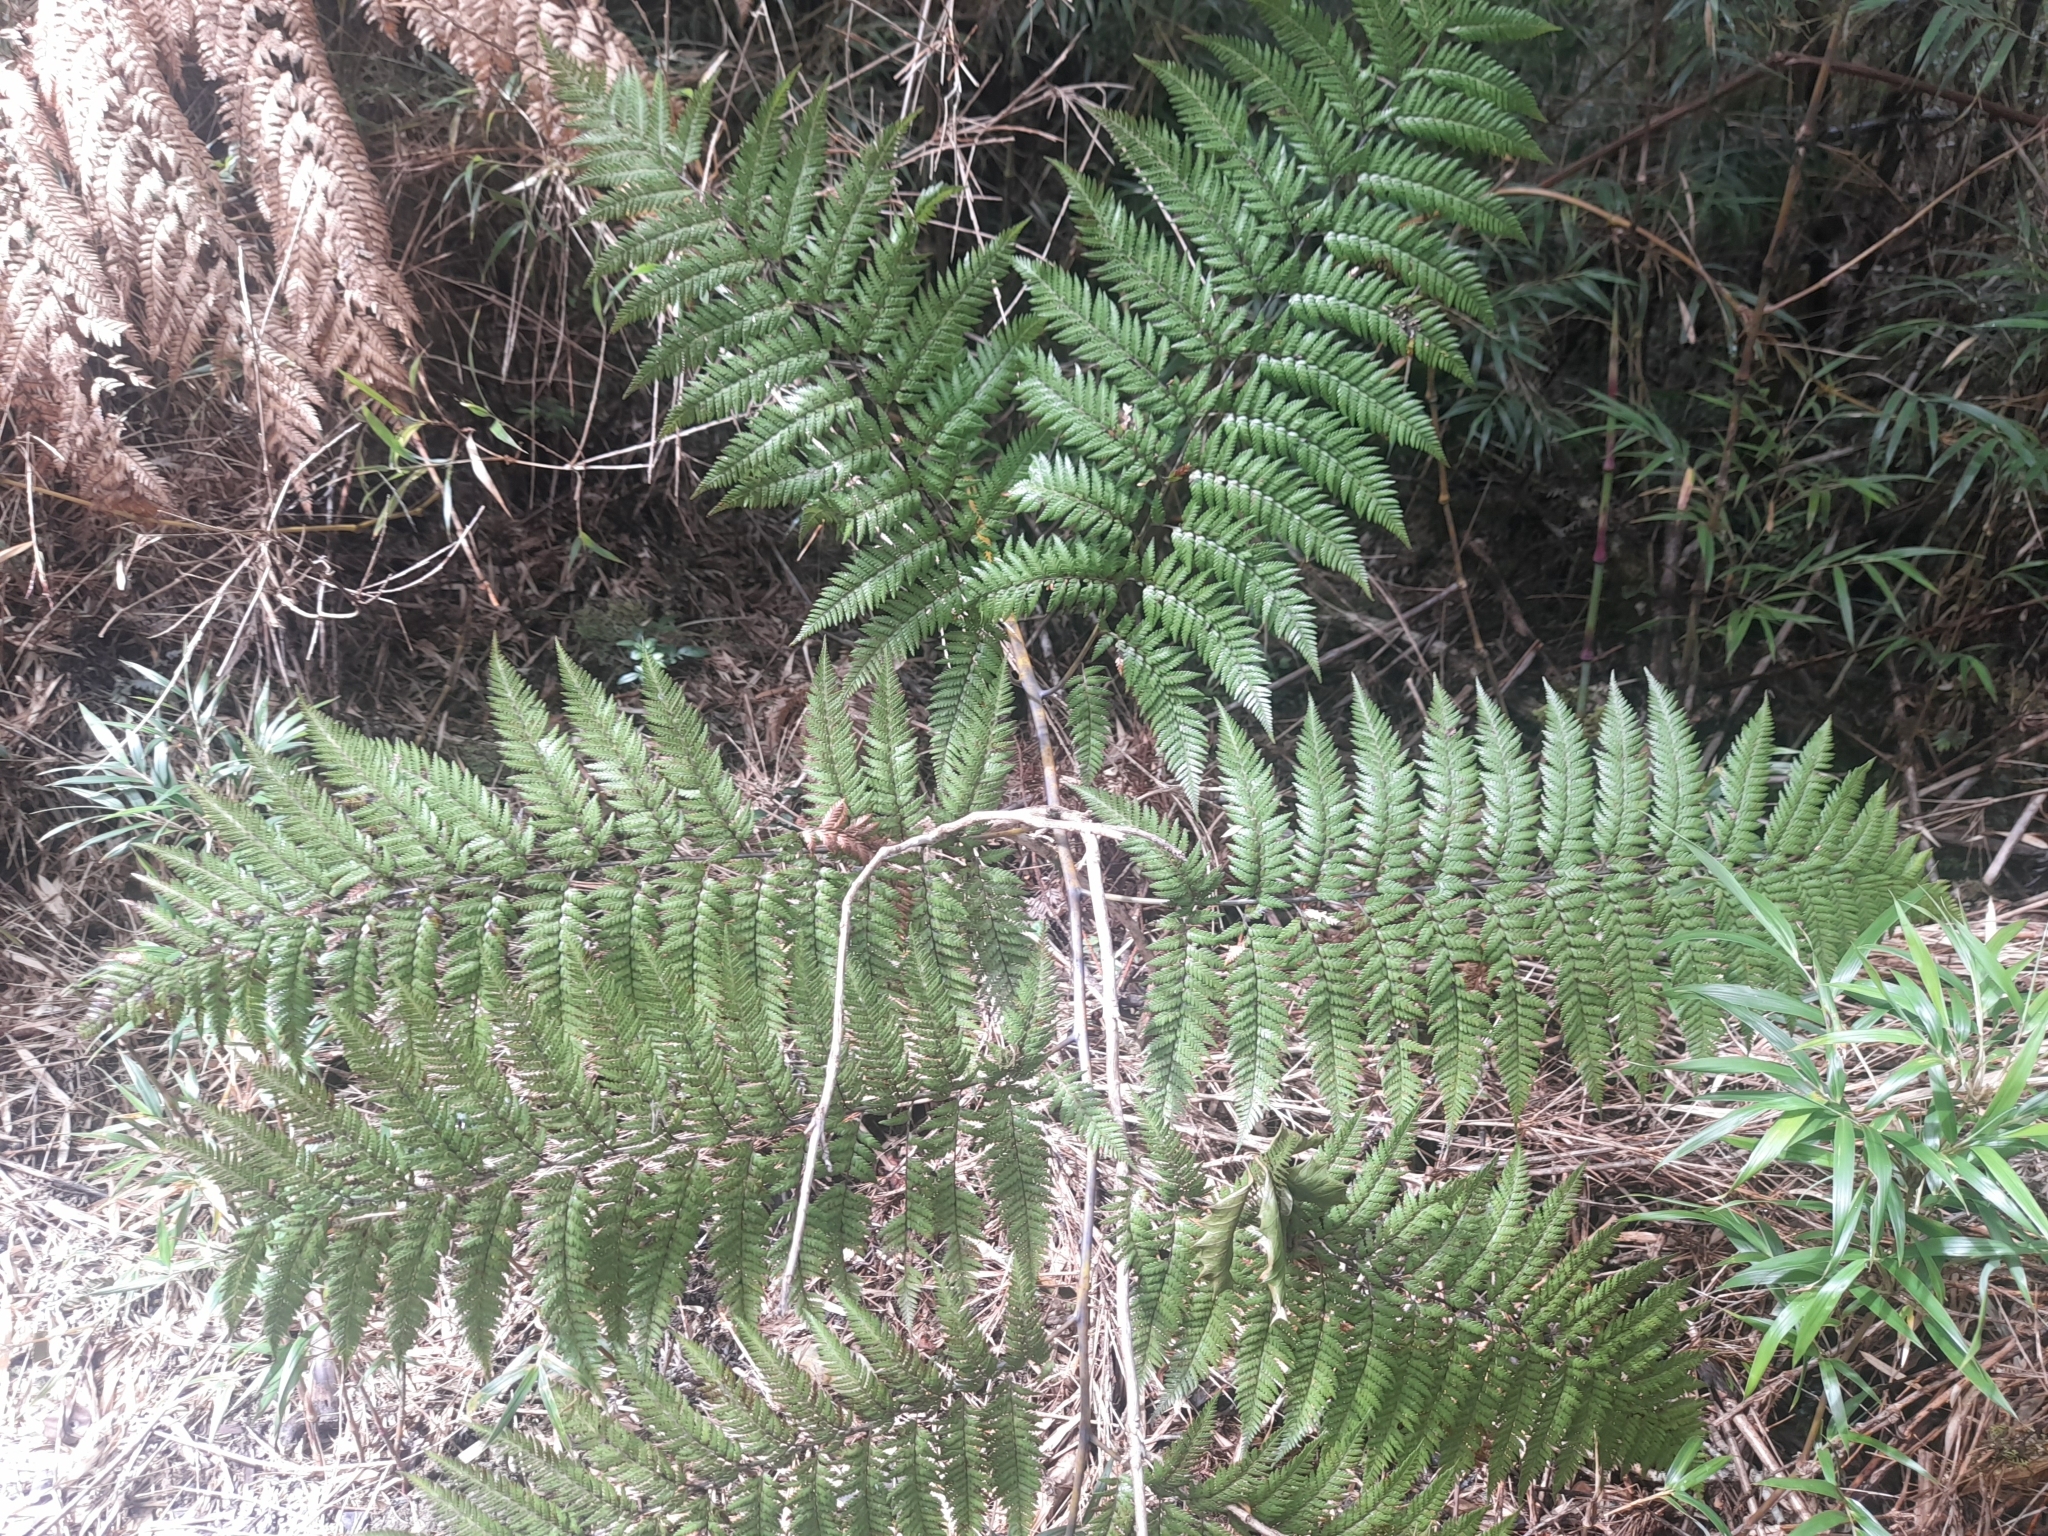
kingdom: Plantae
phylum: Tracheophyta
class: Polypodiopsida
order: Cyatheales
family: Dicksoniaceae
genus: Lophosoria
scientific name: Lophosoria quadripinnata
